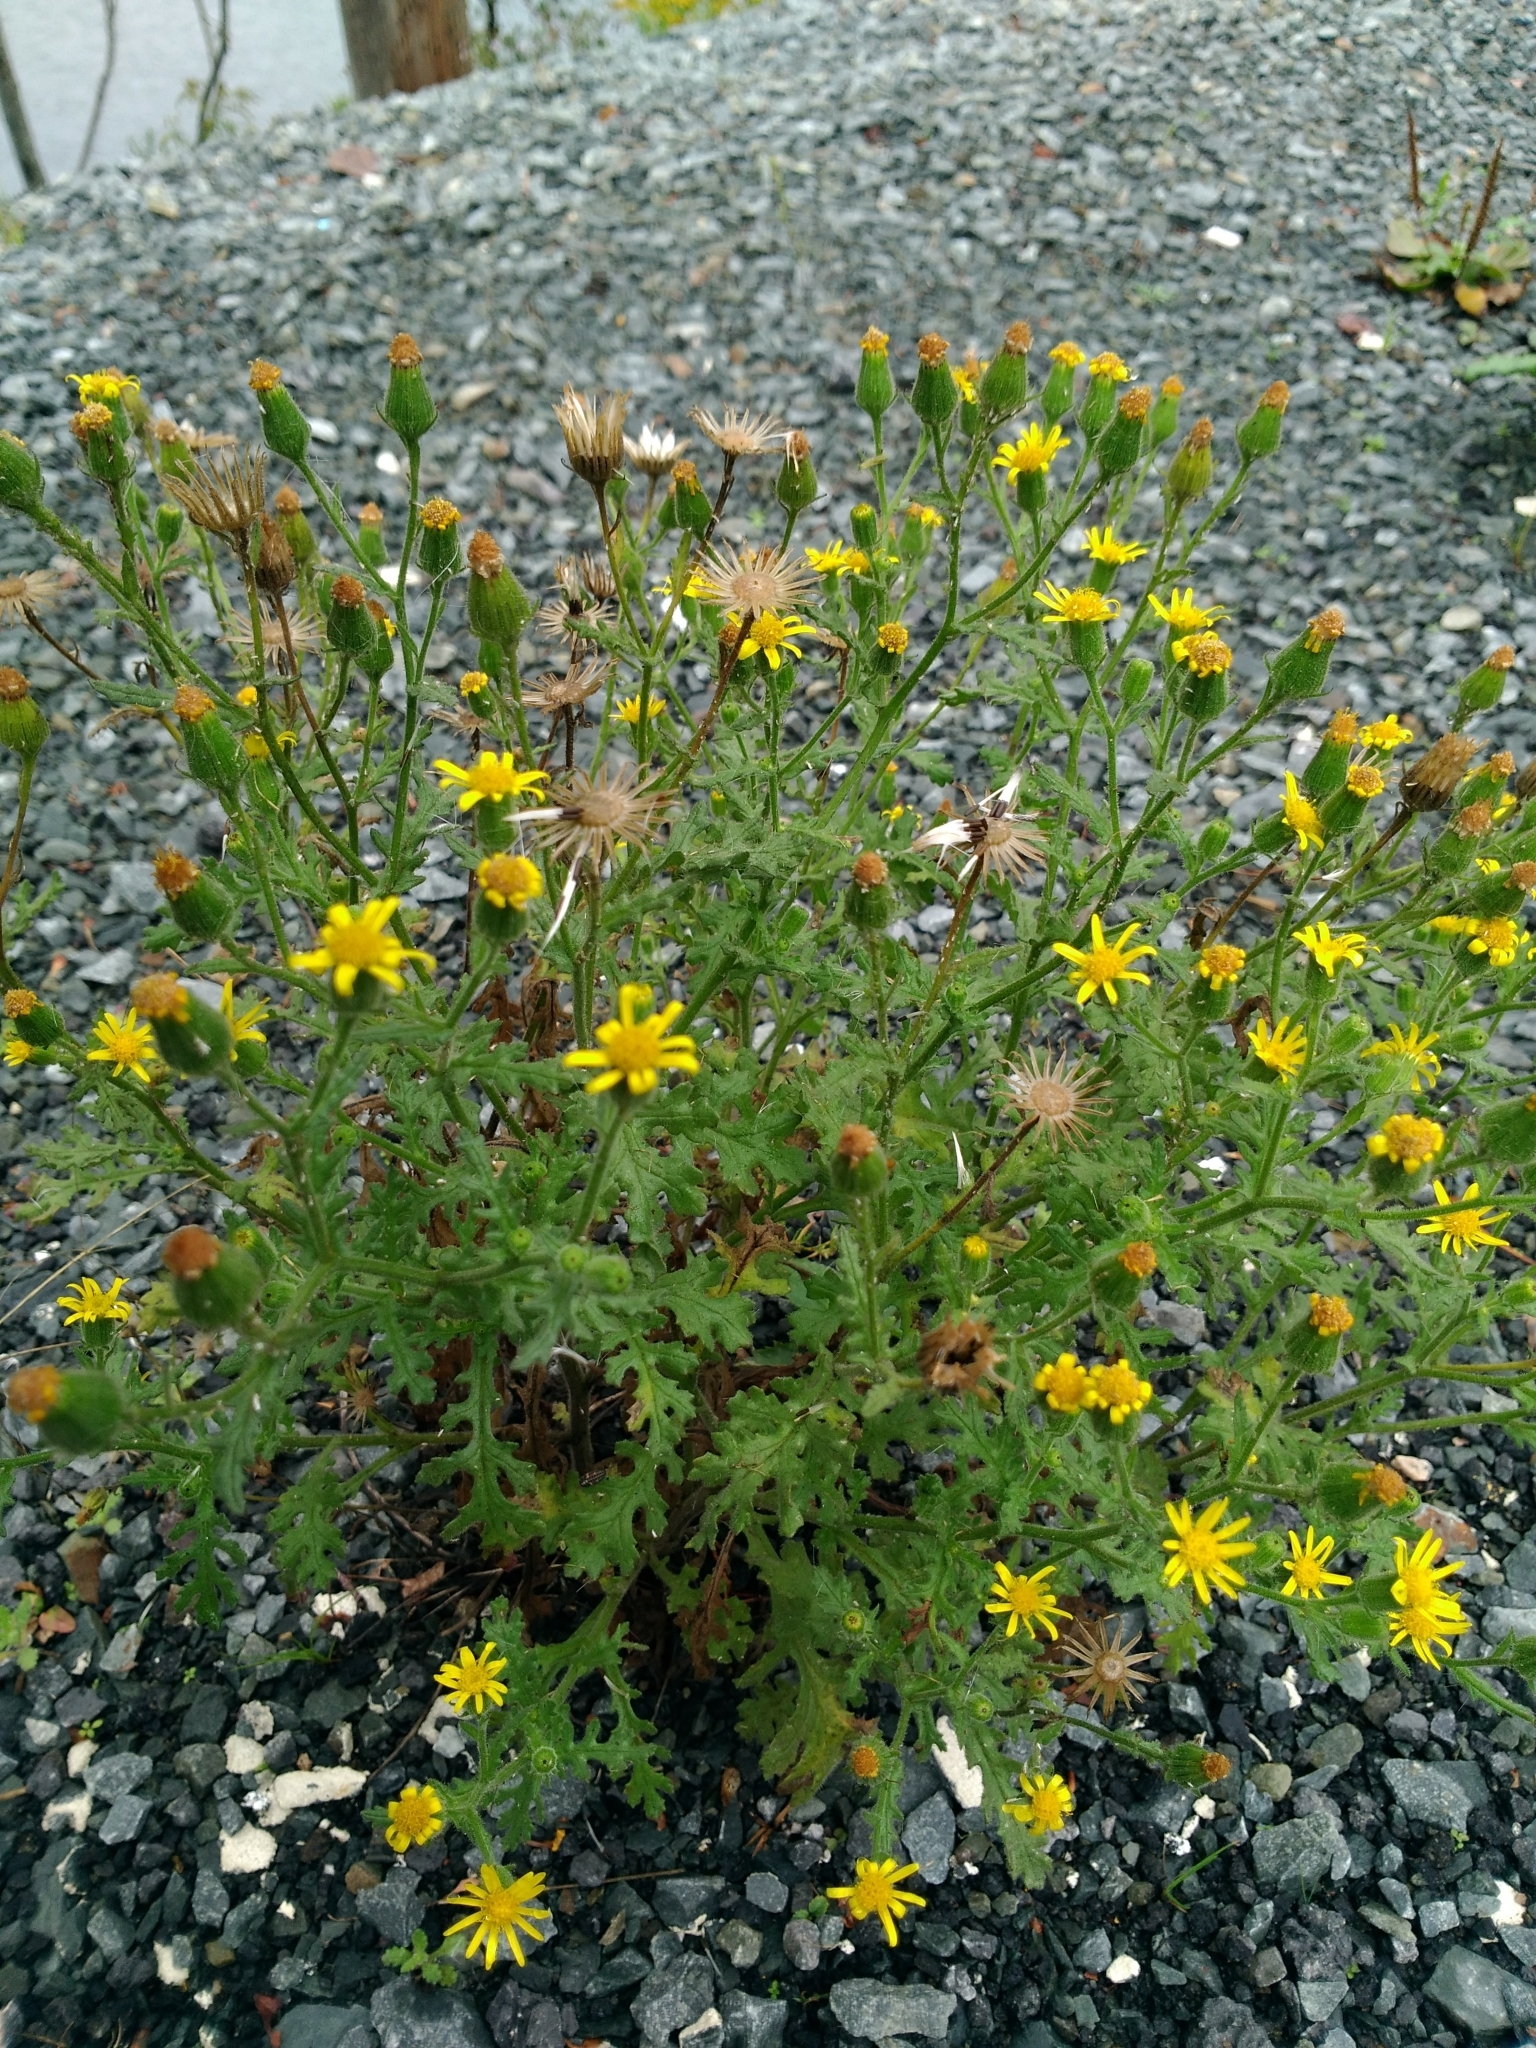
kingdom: Plantae
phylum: Tracheophyta
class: Magnoliopsida
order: Asterales
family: Asteraceae
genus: Senecio
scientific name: Senecio viscosus
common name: Sticky groundsel
